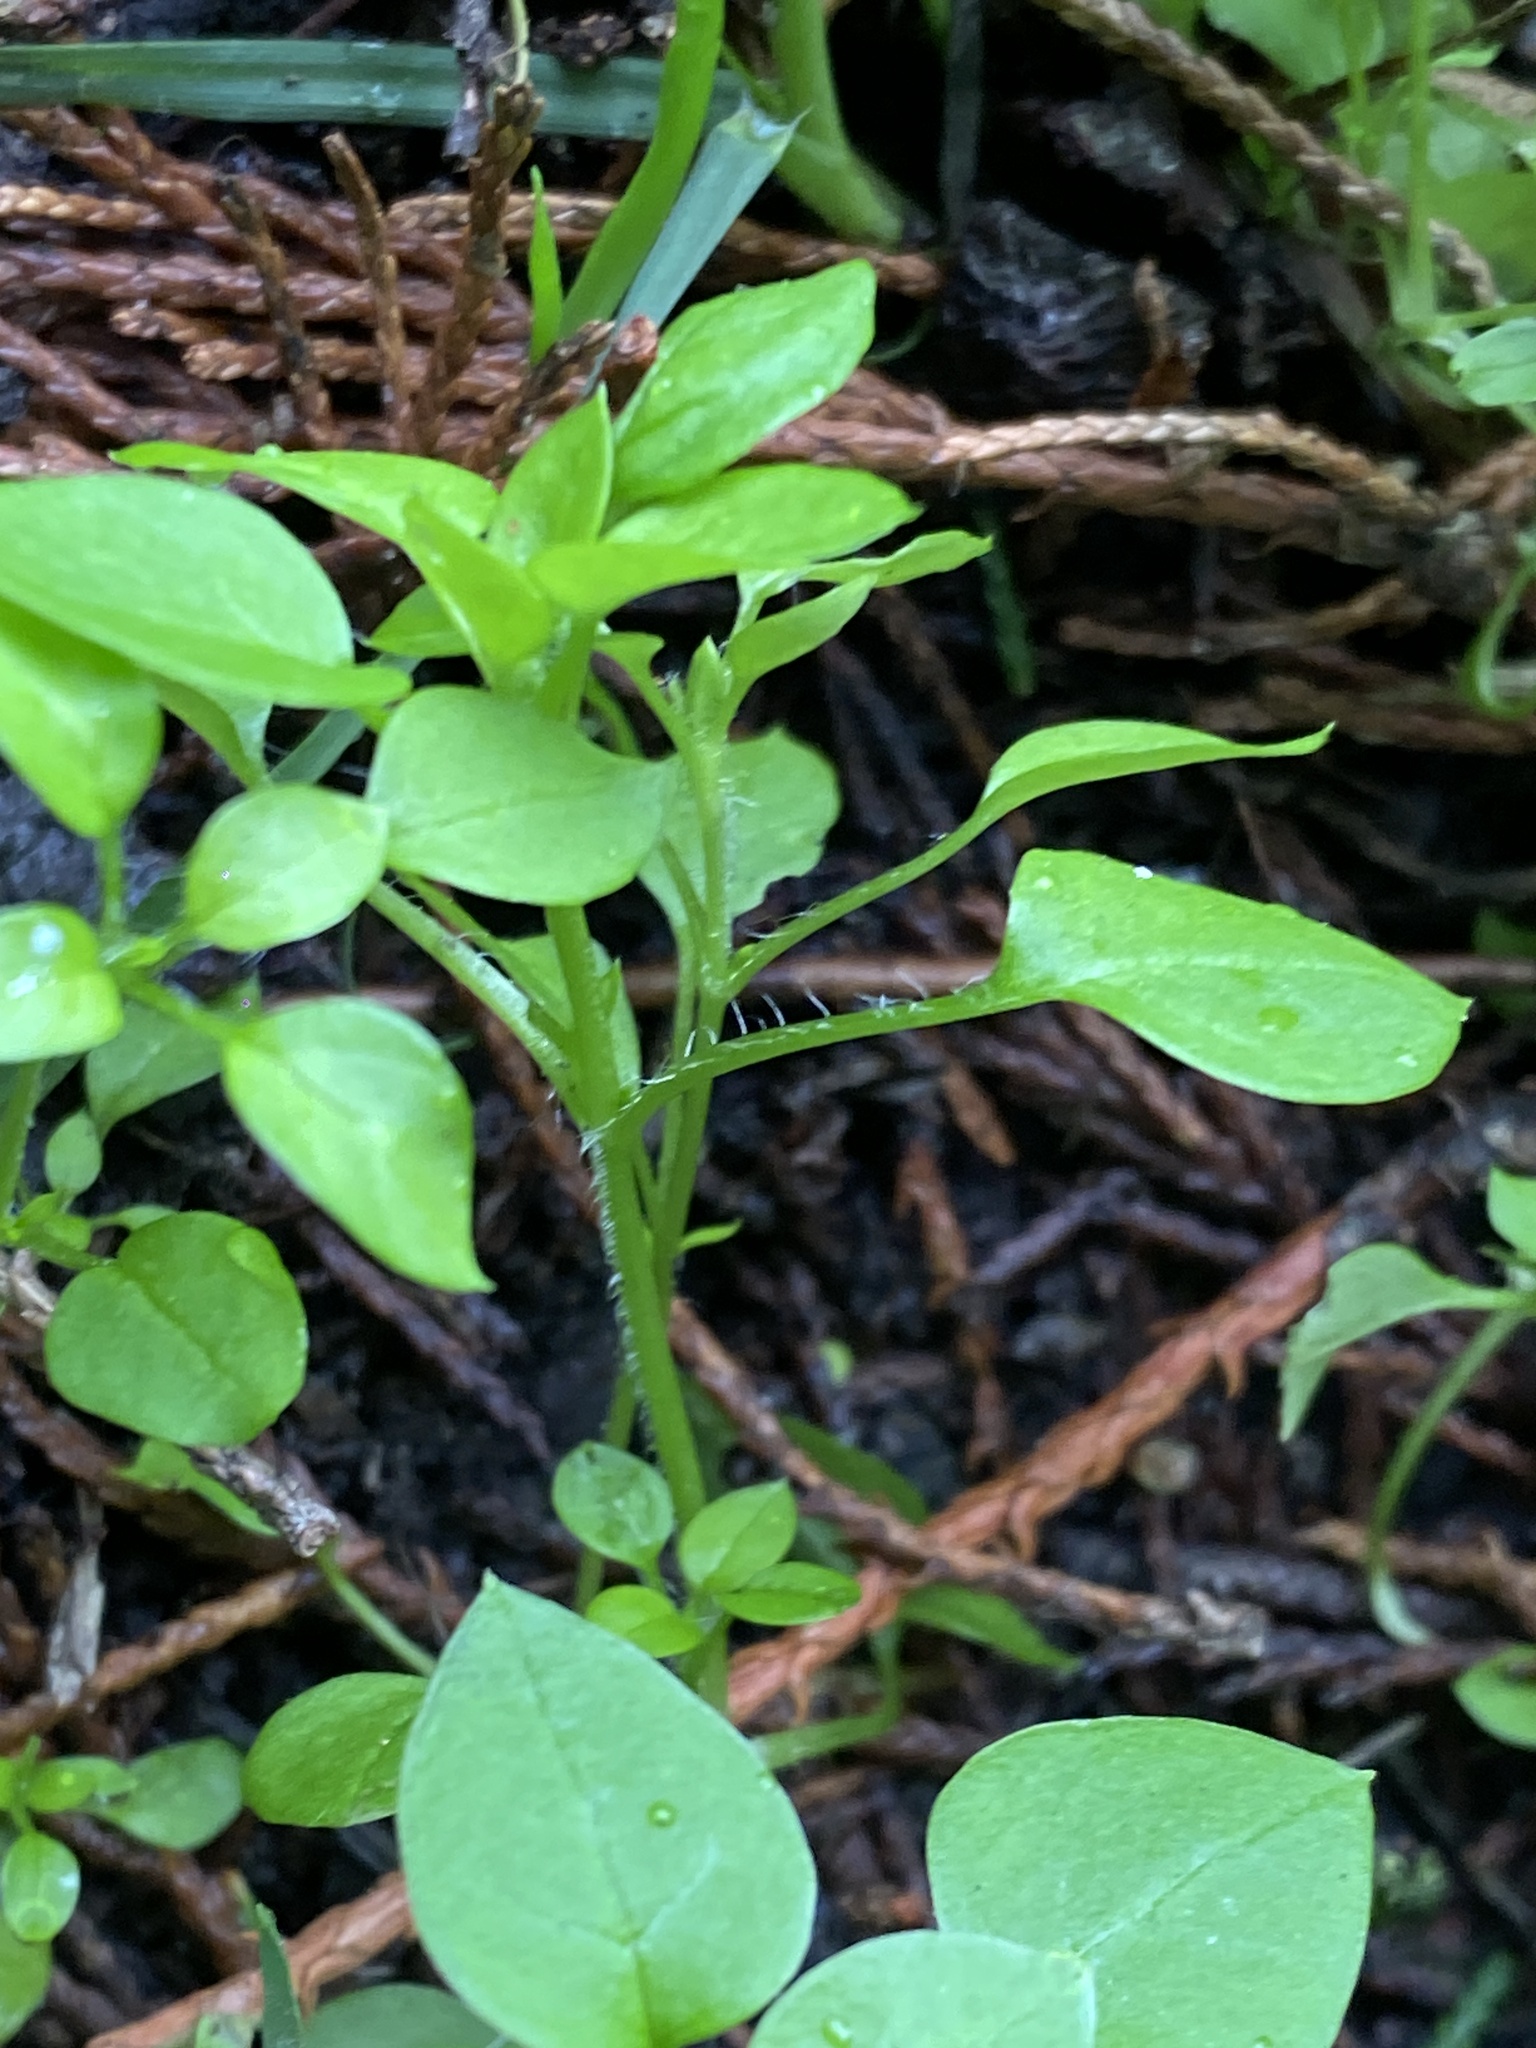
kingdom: Plantae
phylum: Tracheophyta
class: Magnoliopsida
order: Caryophyllales
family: Caryophyllaceae
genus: Stellaria
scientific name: Stellaria media
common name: Common chickweed
